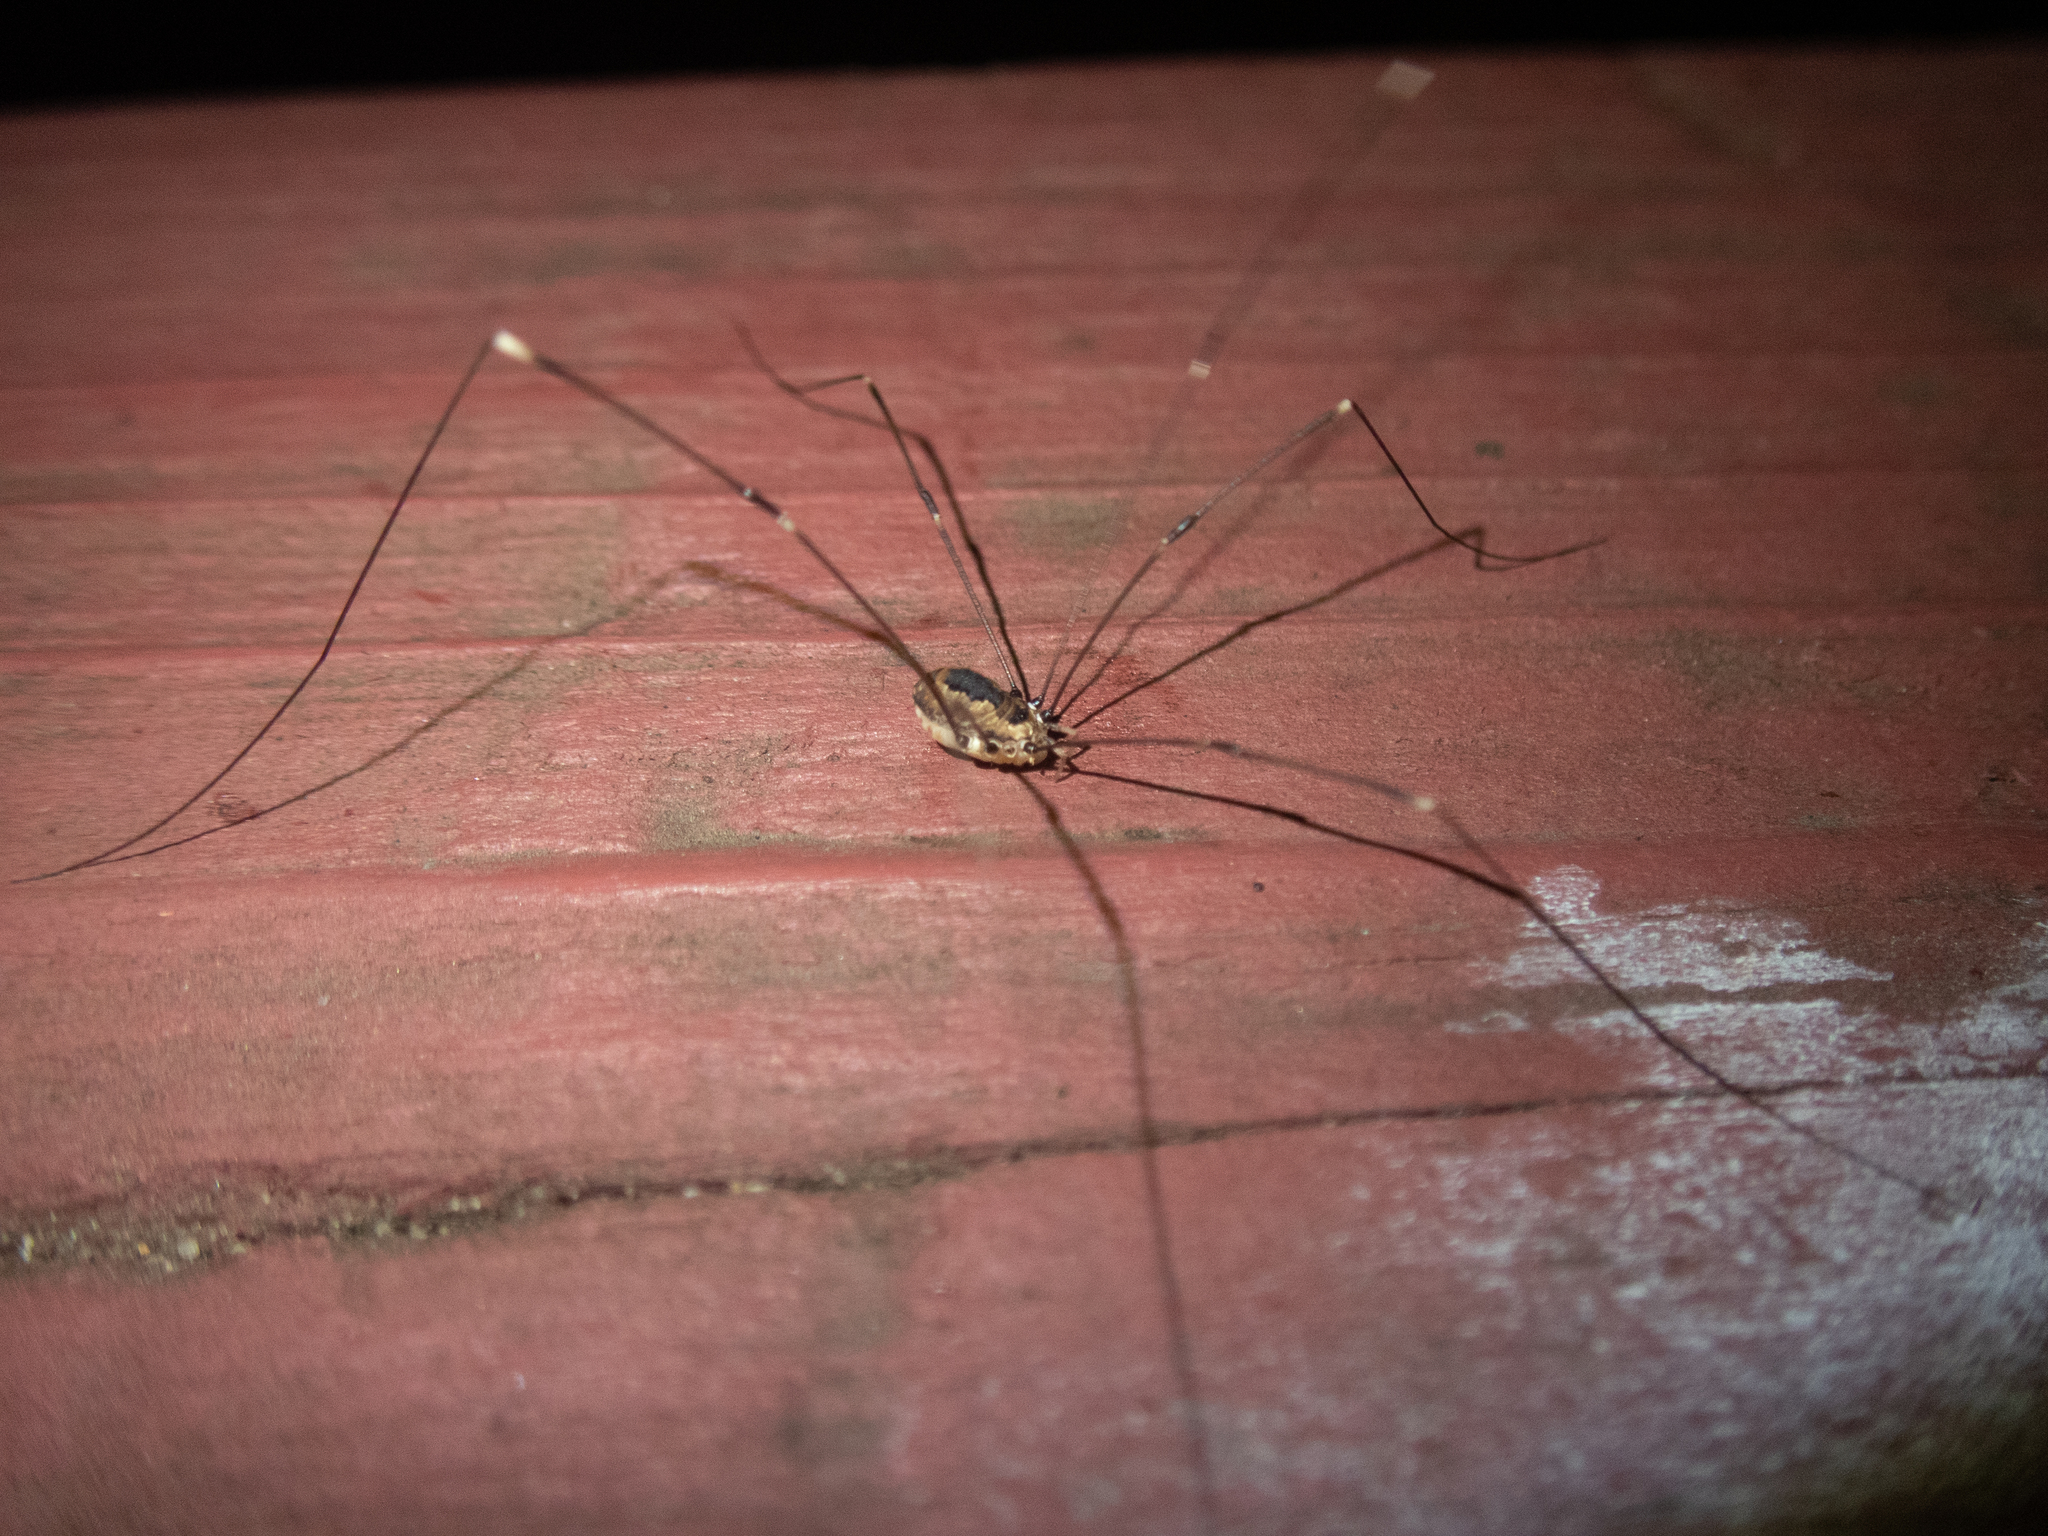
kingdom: Animalia
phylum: Arthropoda
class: Arachnida
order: Opiliones
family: Sclerosomatidae
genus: Leiobunum
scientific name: Leiobunum aldrichi
